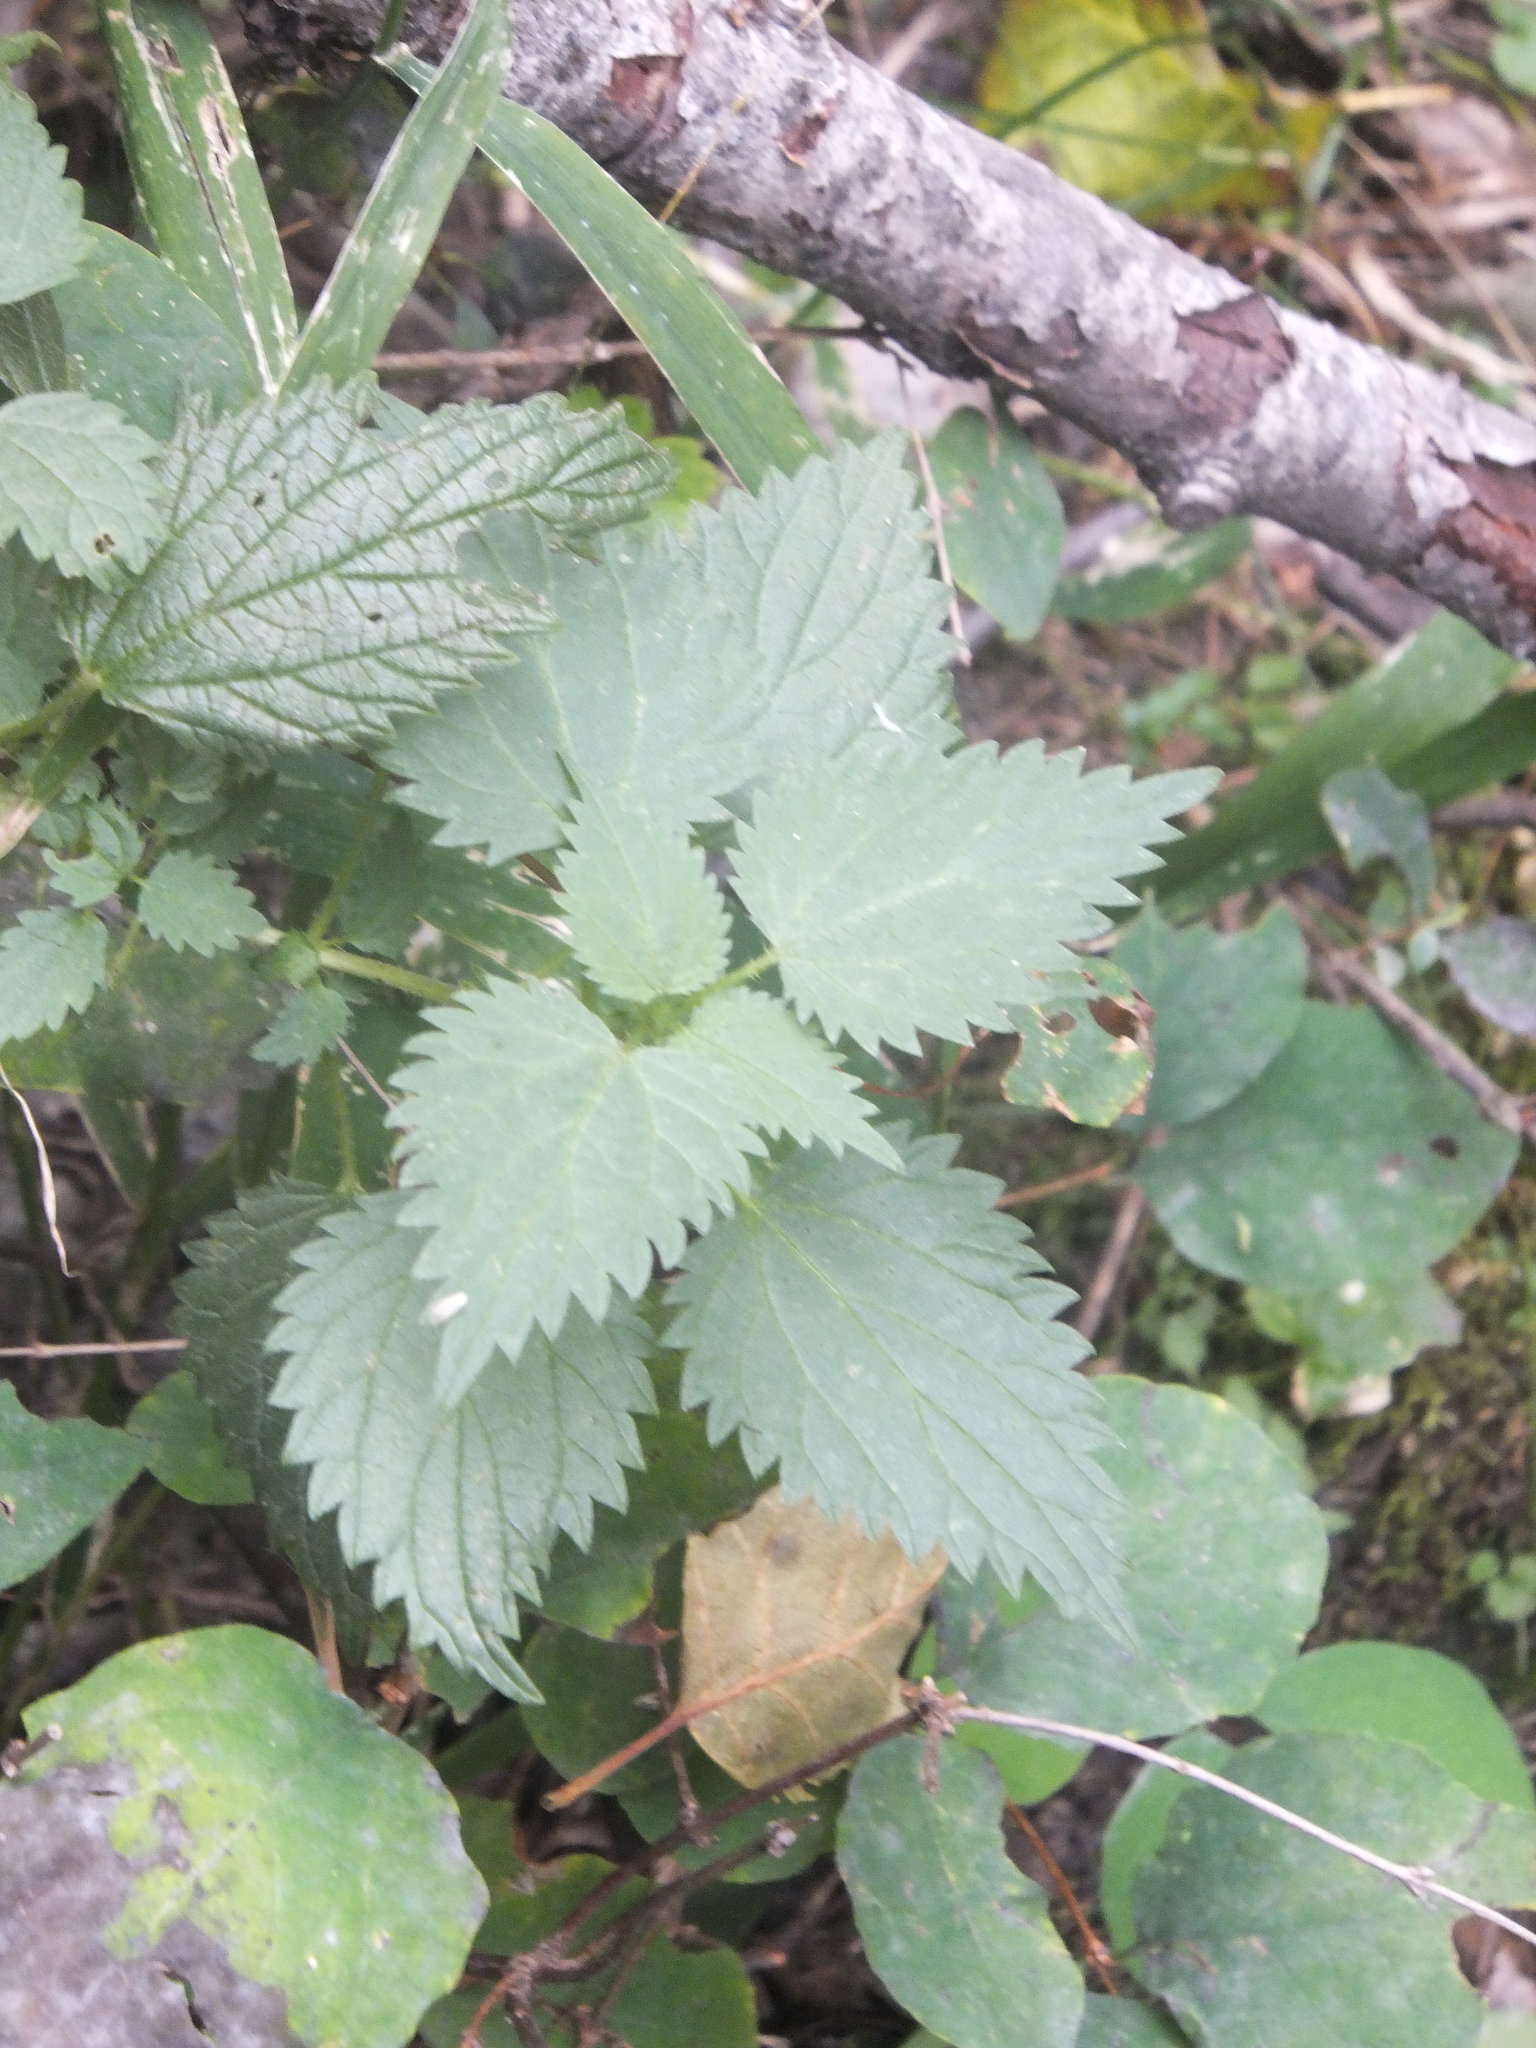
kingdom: Plantae
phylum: Tracheophyta
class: Magnoliopsida
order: Rosales
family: Urticaceae
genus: Urtica
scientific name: Urtica dioica
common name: Common nettle
